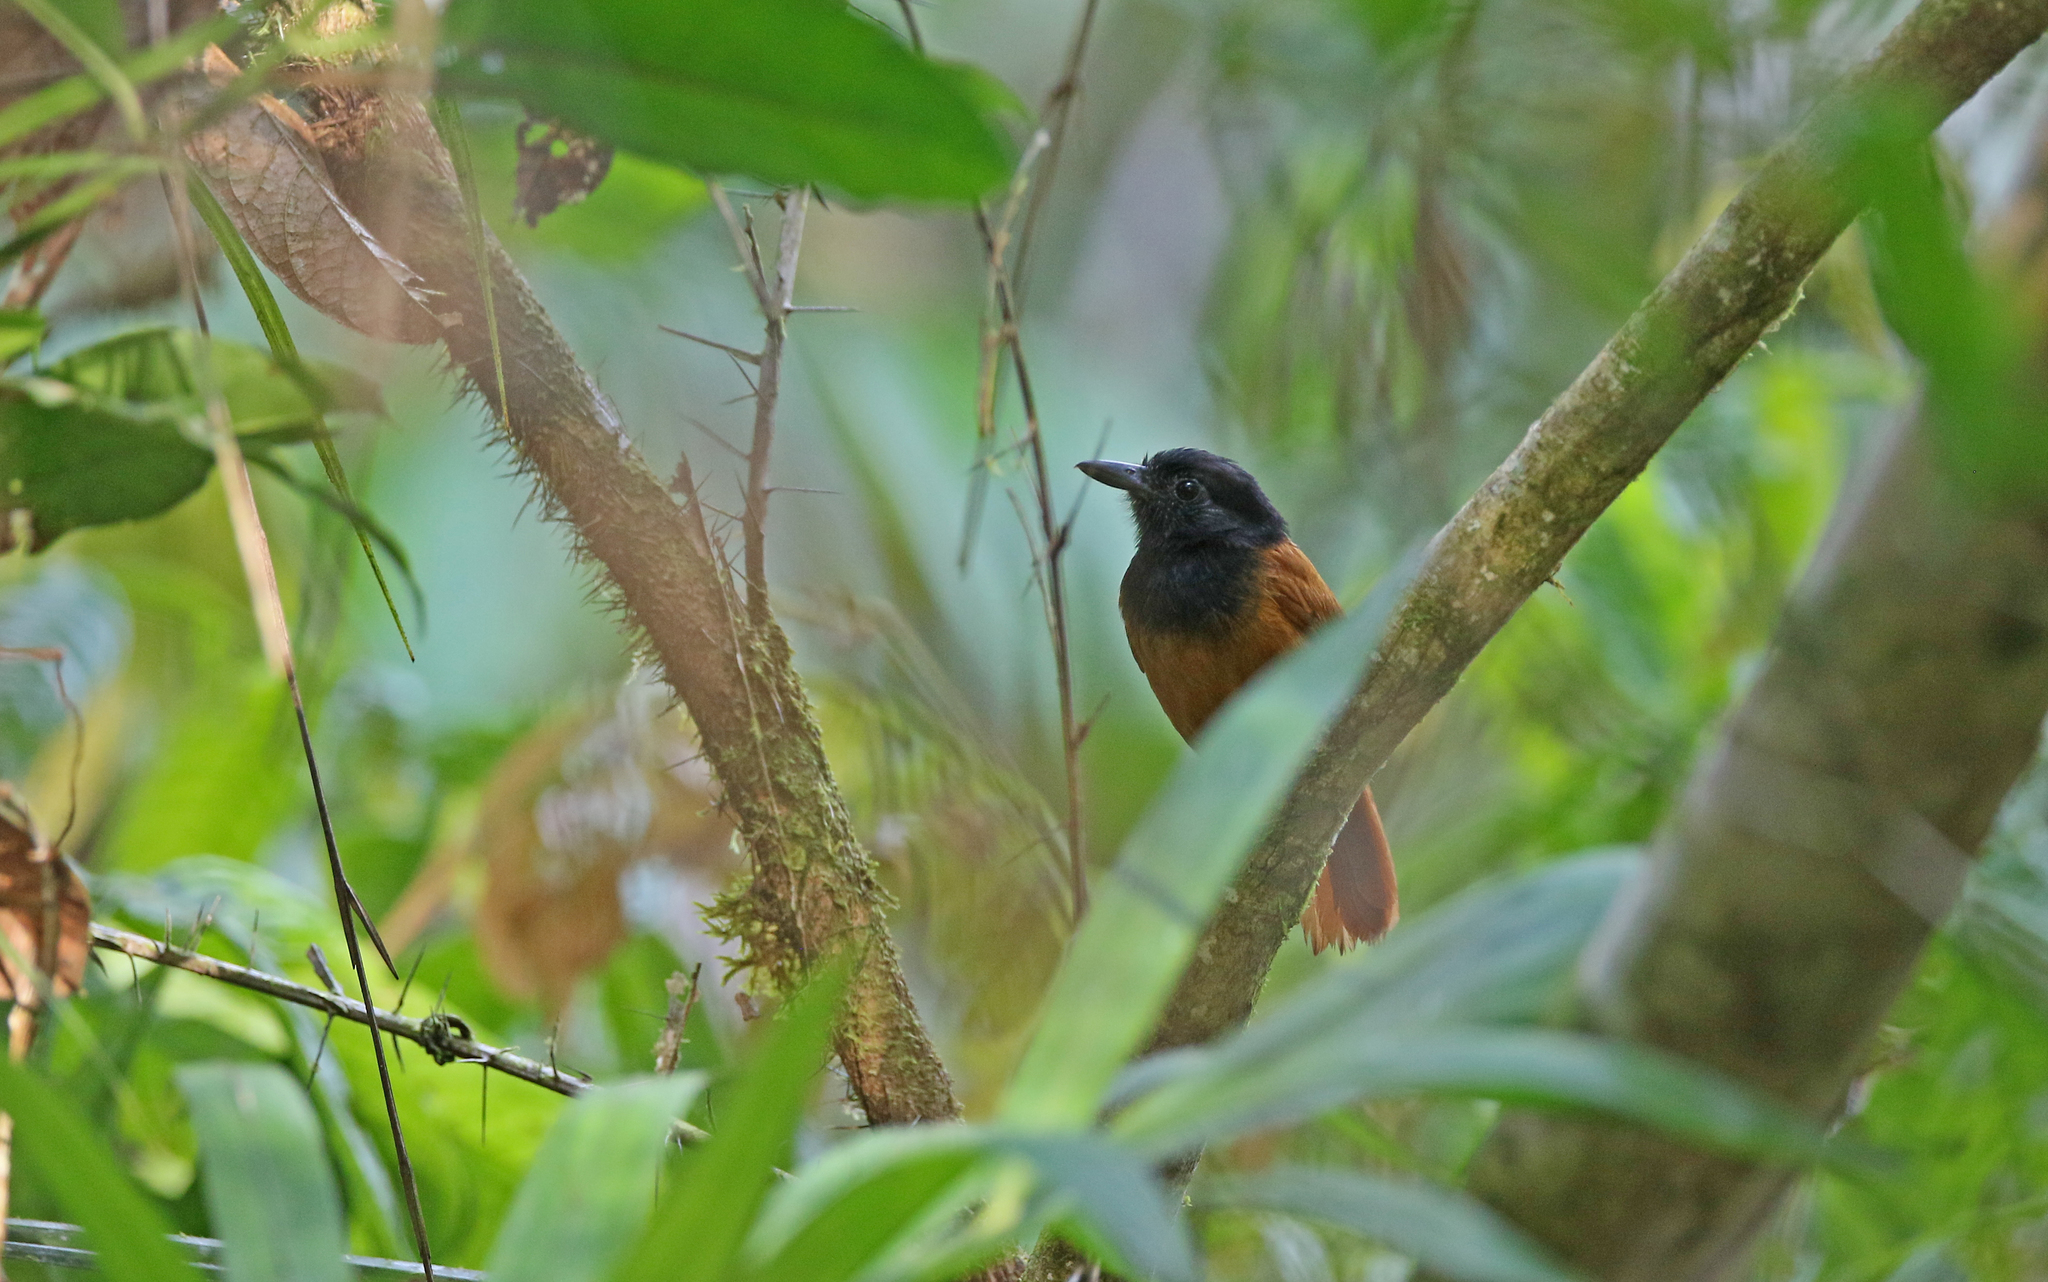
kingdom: Animalia
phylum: Chordata
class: Aves
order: Passeriformes
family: Thamnophilidae
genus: Thamnophilus
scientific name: Thamnophilus praecox
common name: Cocha antshrike
